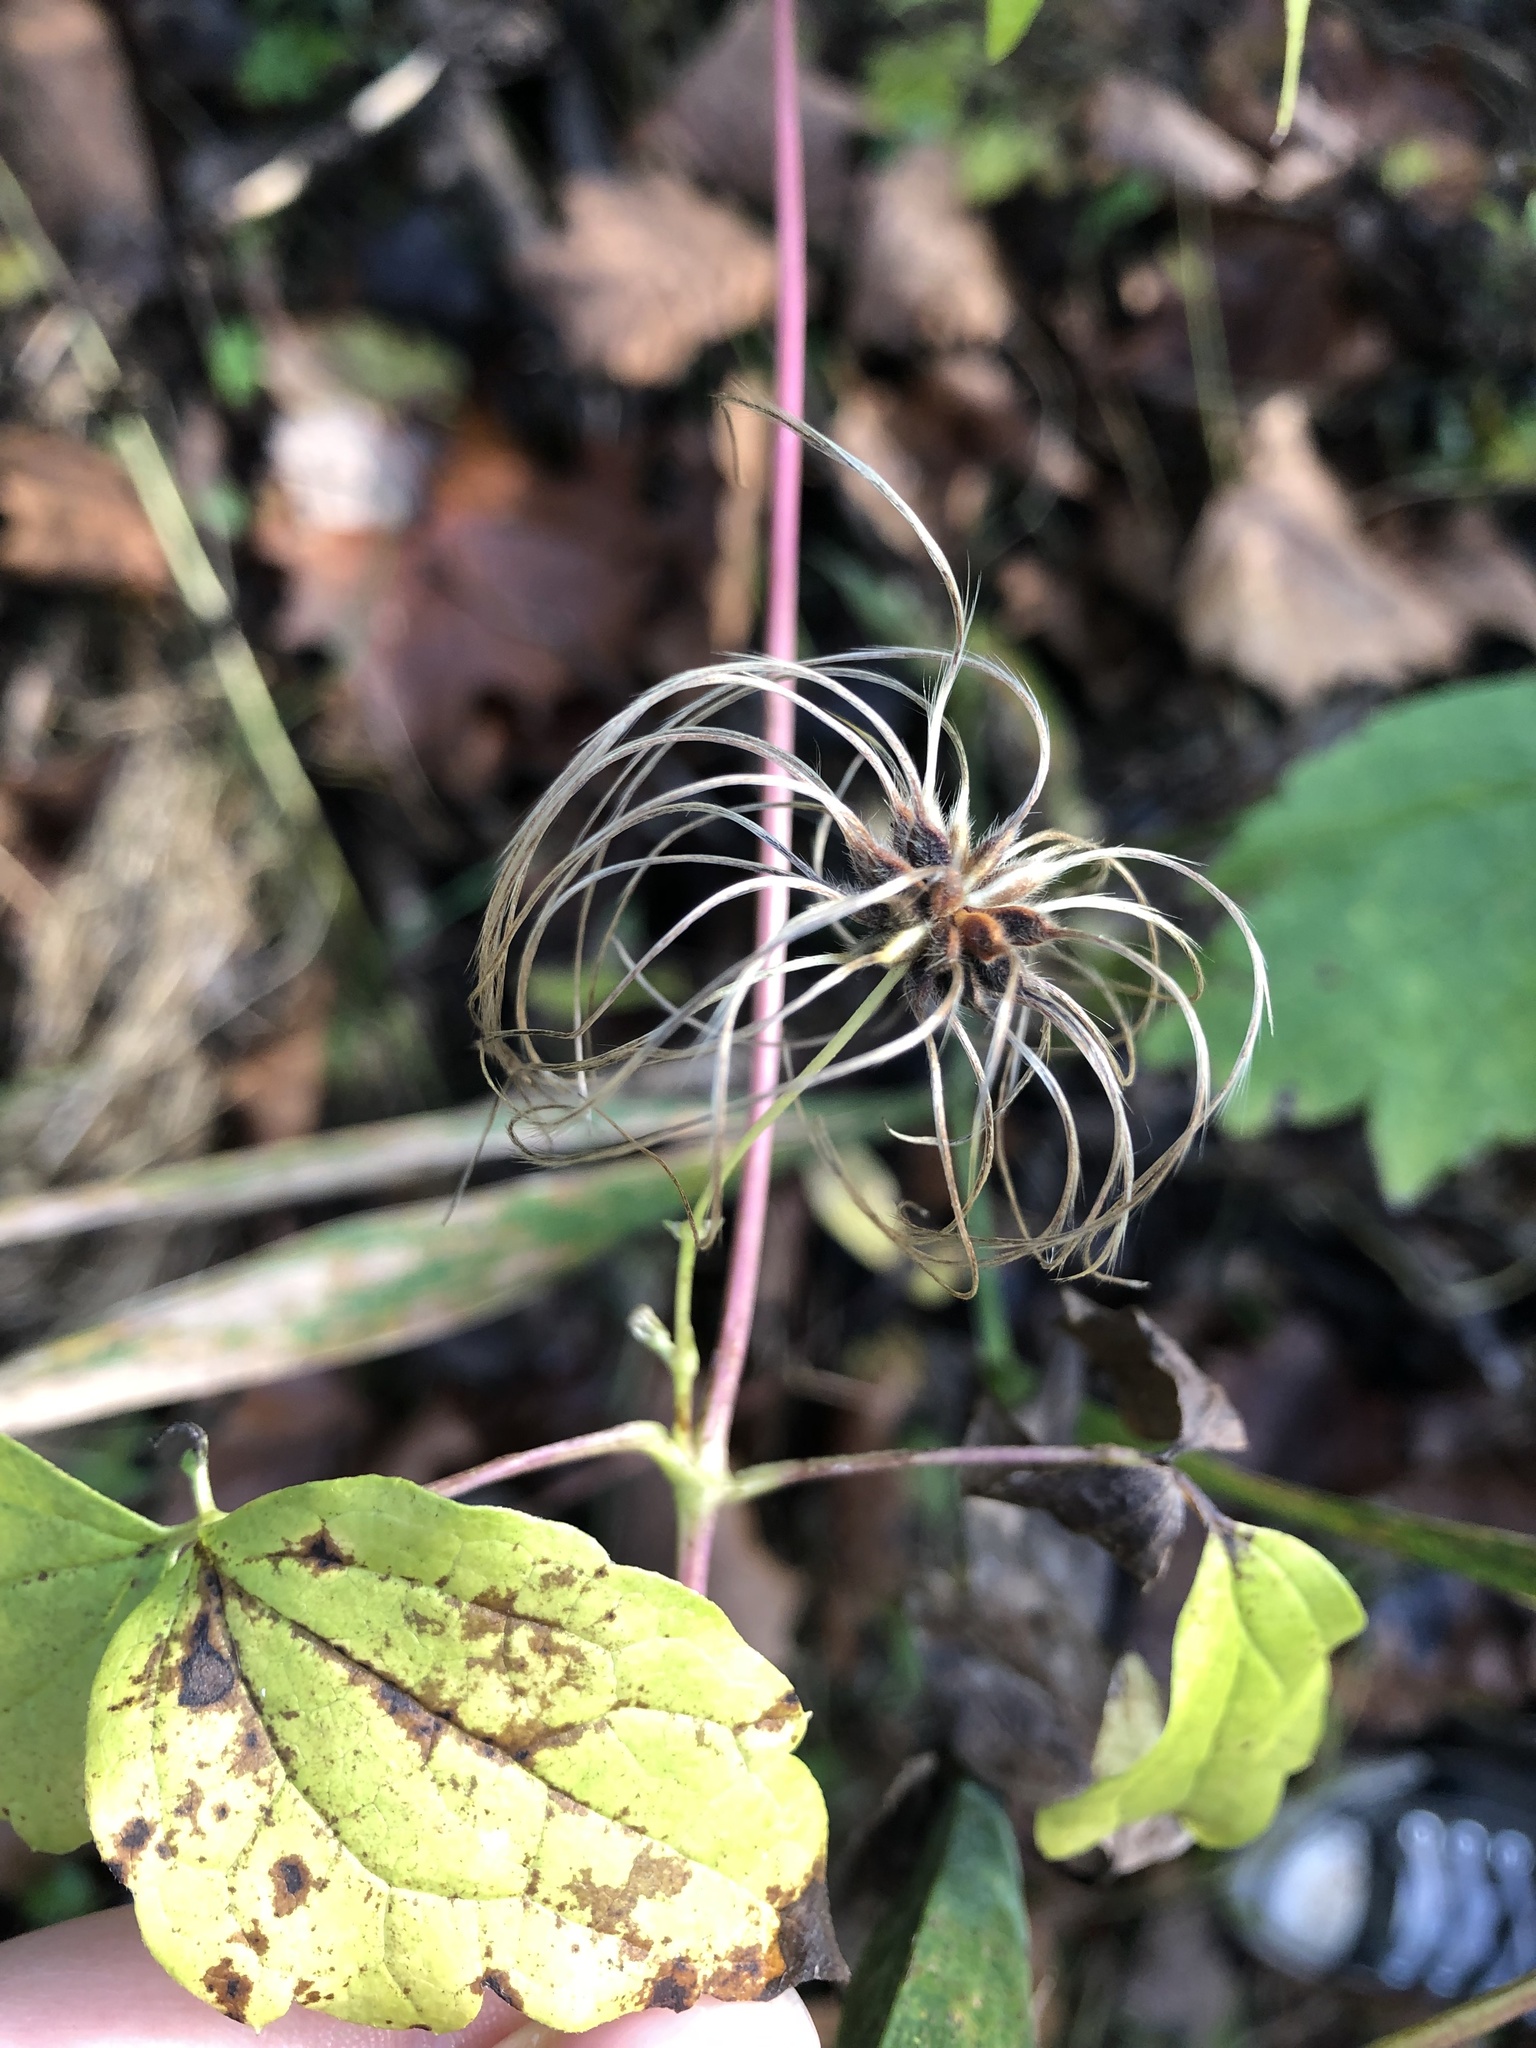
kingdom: Plantae
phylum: Tracheophyta
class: Magnoliopsida
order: Ranunculales
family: Ranunculaceae
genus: Clematis
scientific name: Clematis virginiana
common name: Virgin's-bower
